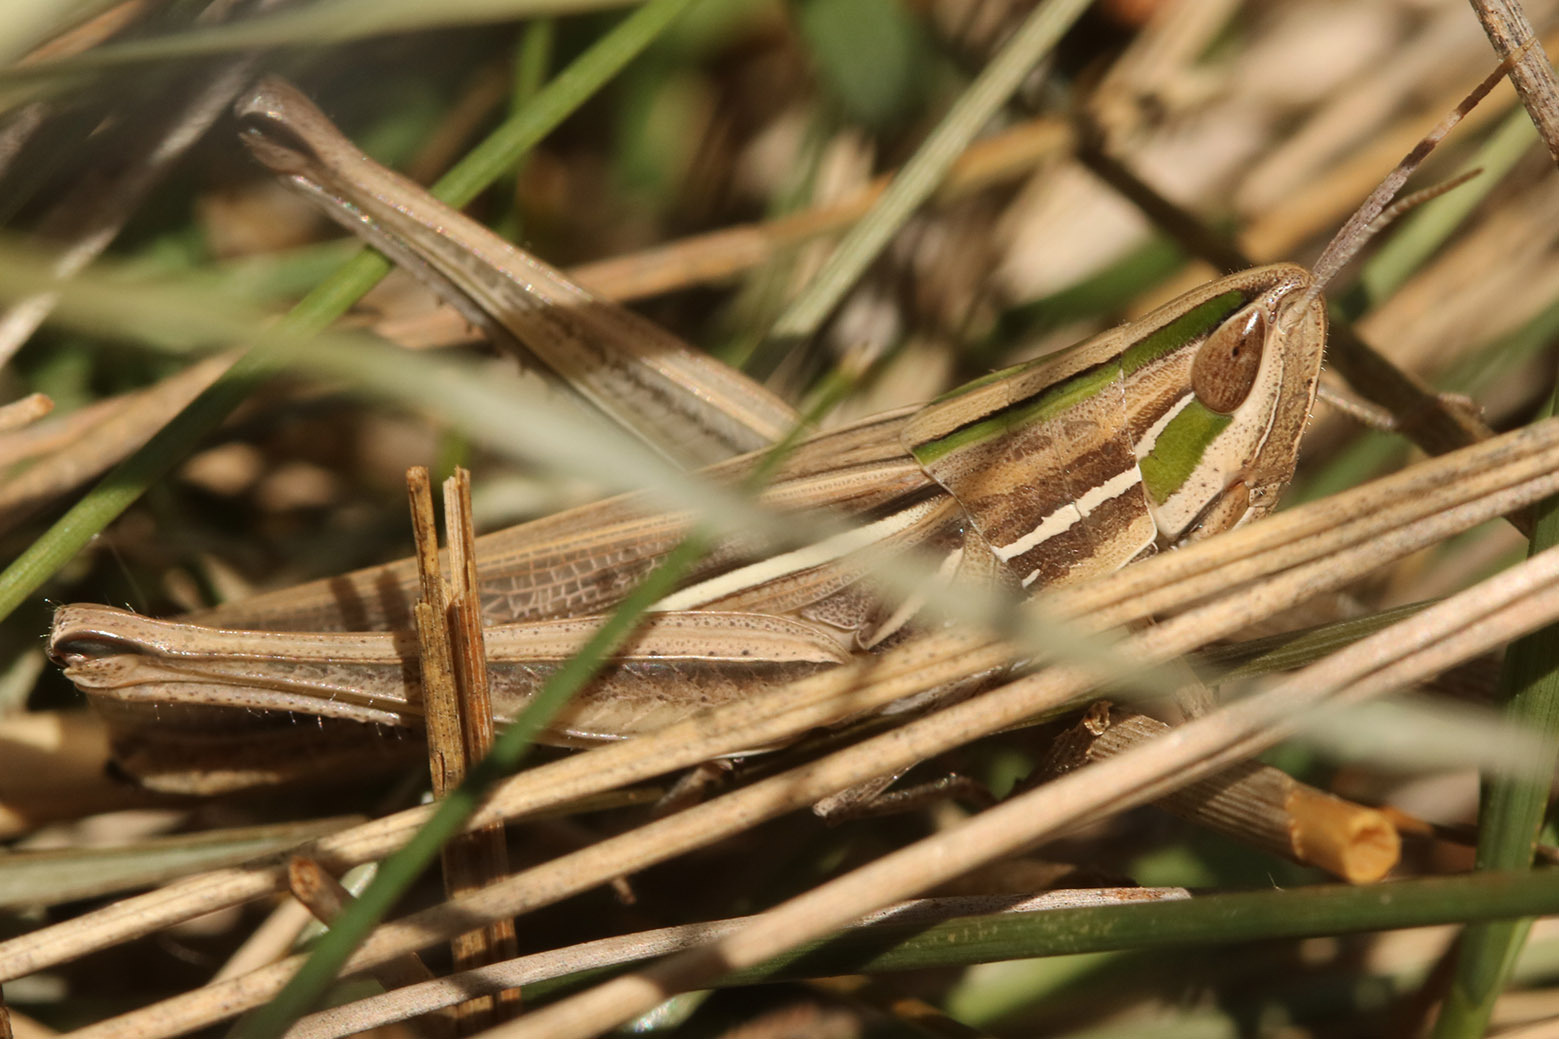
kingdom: Animalia
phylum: Arthropoda
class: Insecta
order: Orthoptera
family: Acrididae
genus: Sinipta
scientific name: Sinipta dalmani
